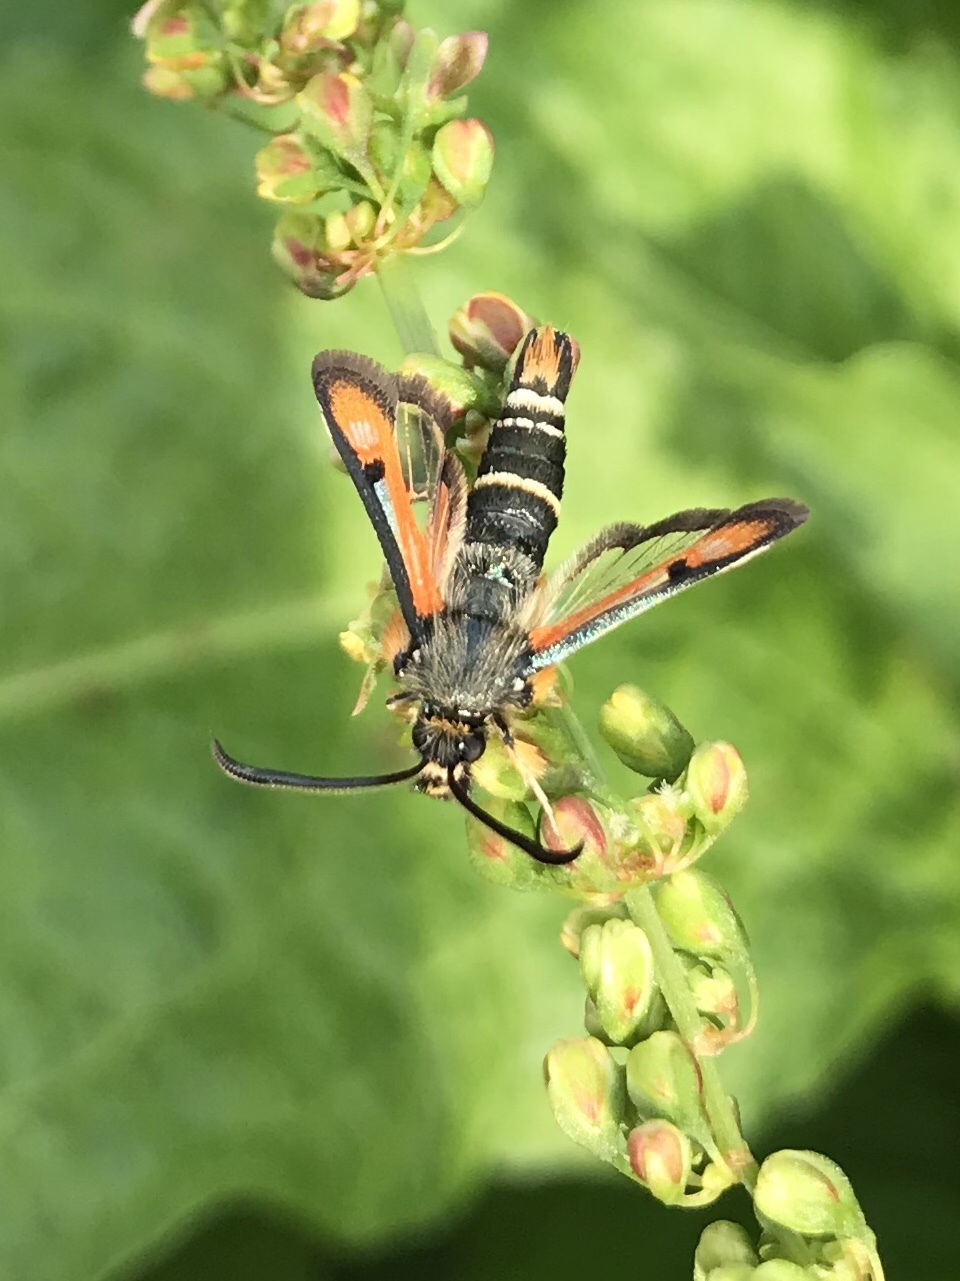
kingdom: Animalia
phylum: Arthropoda
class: Insecta
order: Lepidoptera
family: Sesiidae
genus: Pyropteron
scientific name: Pyropteron chrysidiforme
